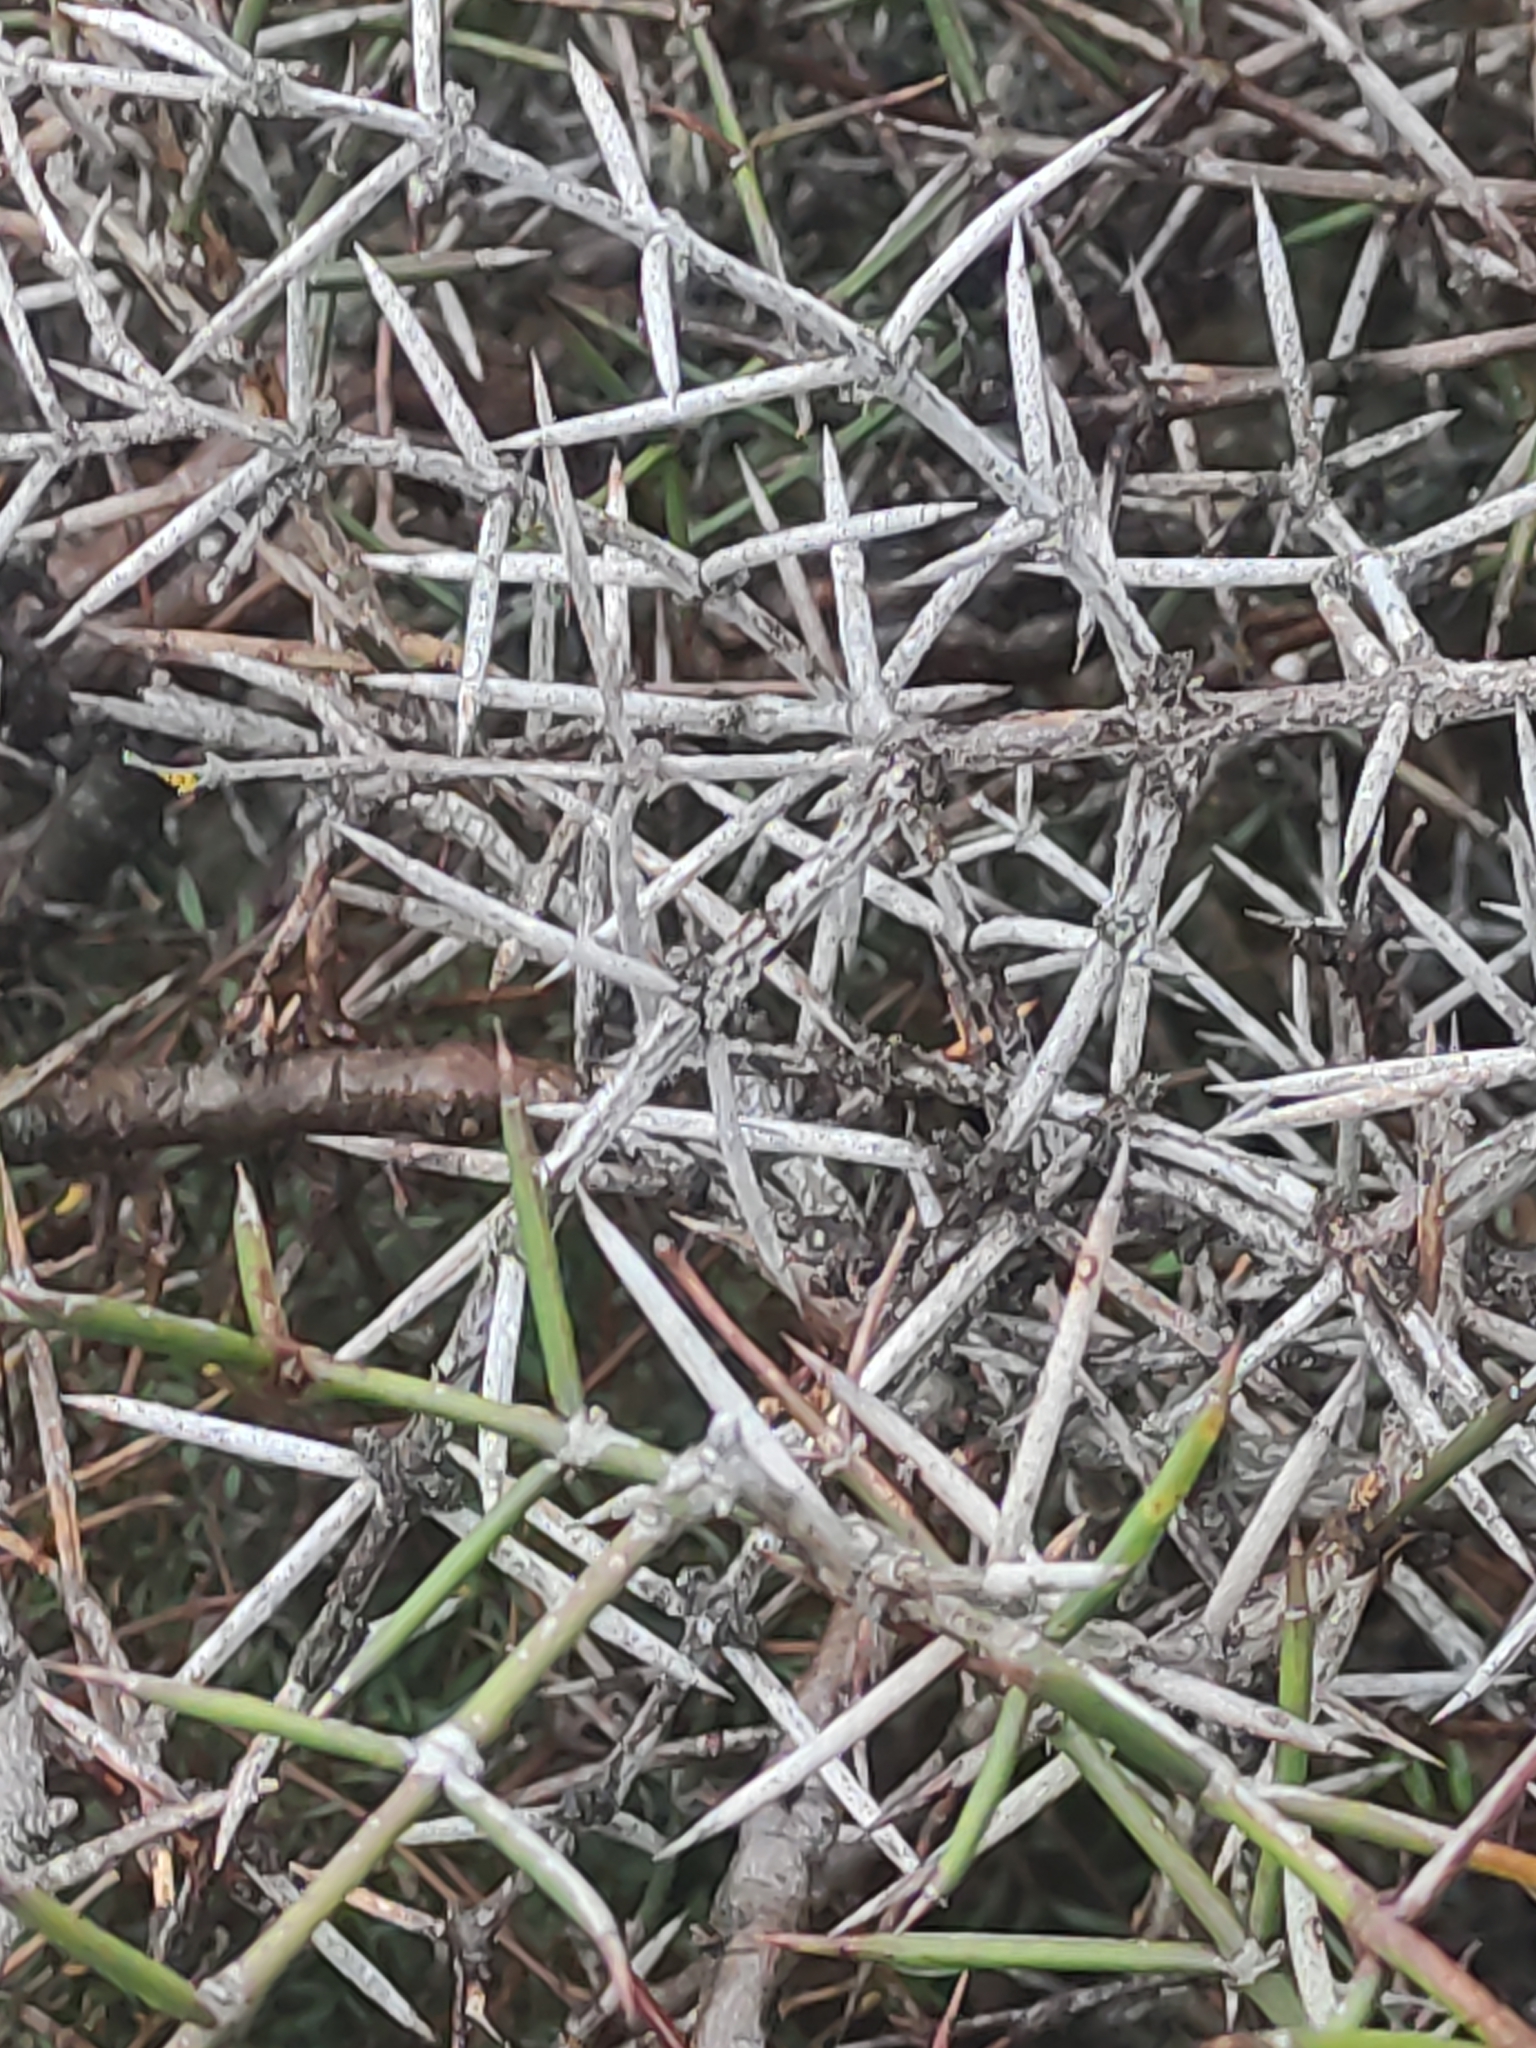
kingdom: Plantae
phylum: Tracheophyta
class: Magnoliopsida
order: Rosales
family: Rhamnaceae
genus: Discaria
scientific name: Discaria toumatou
